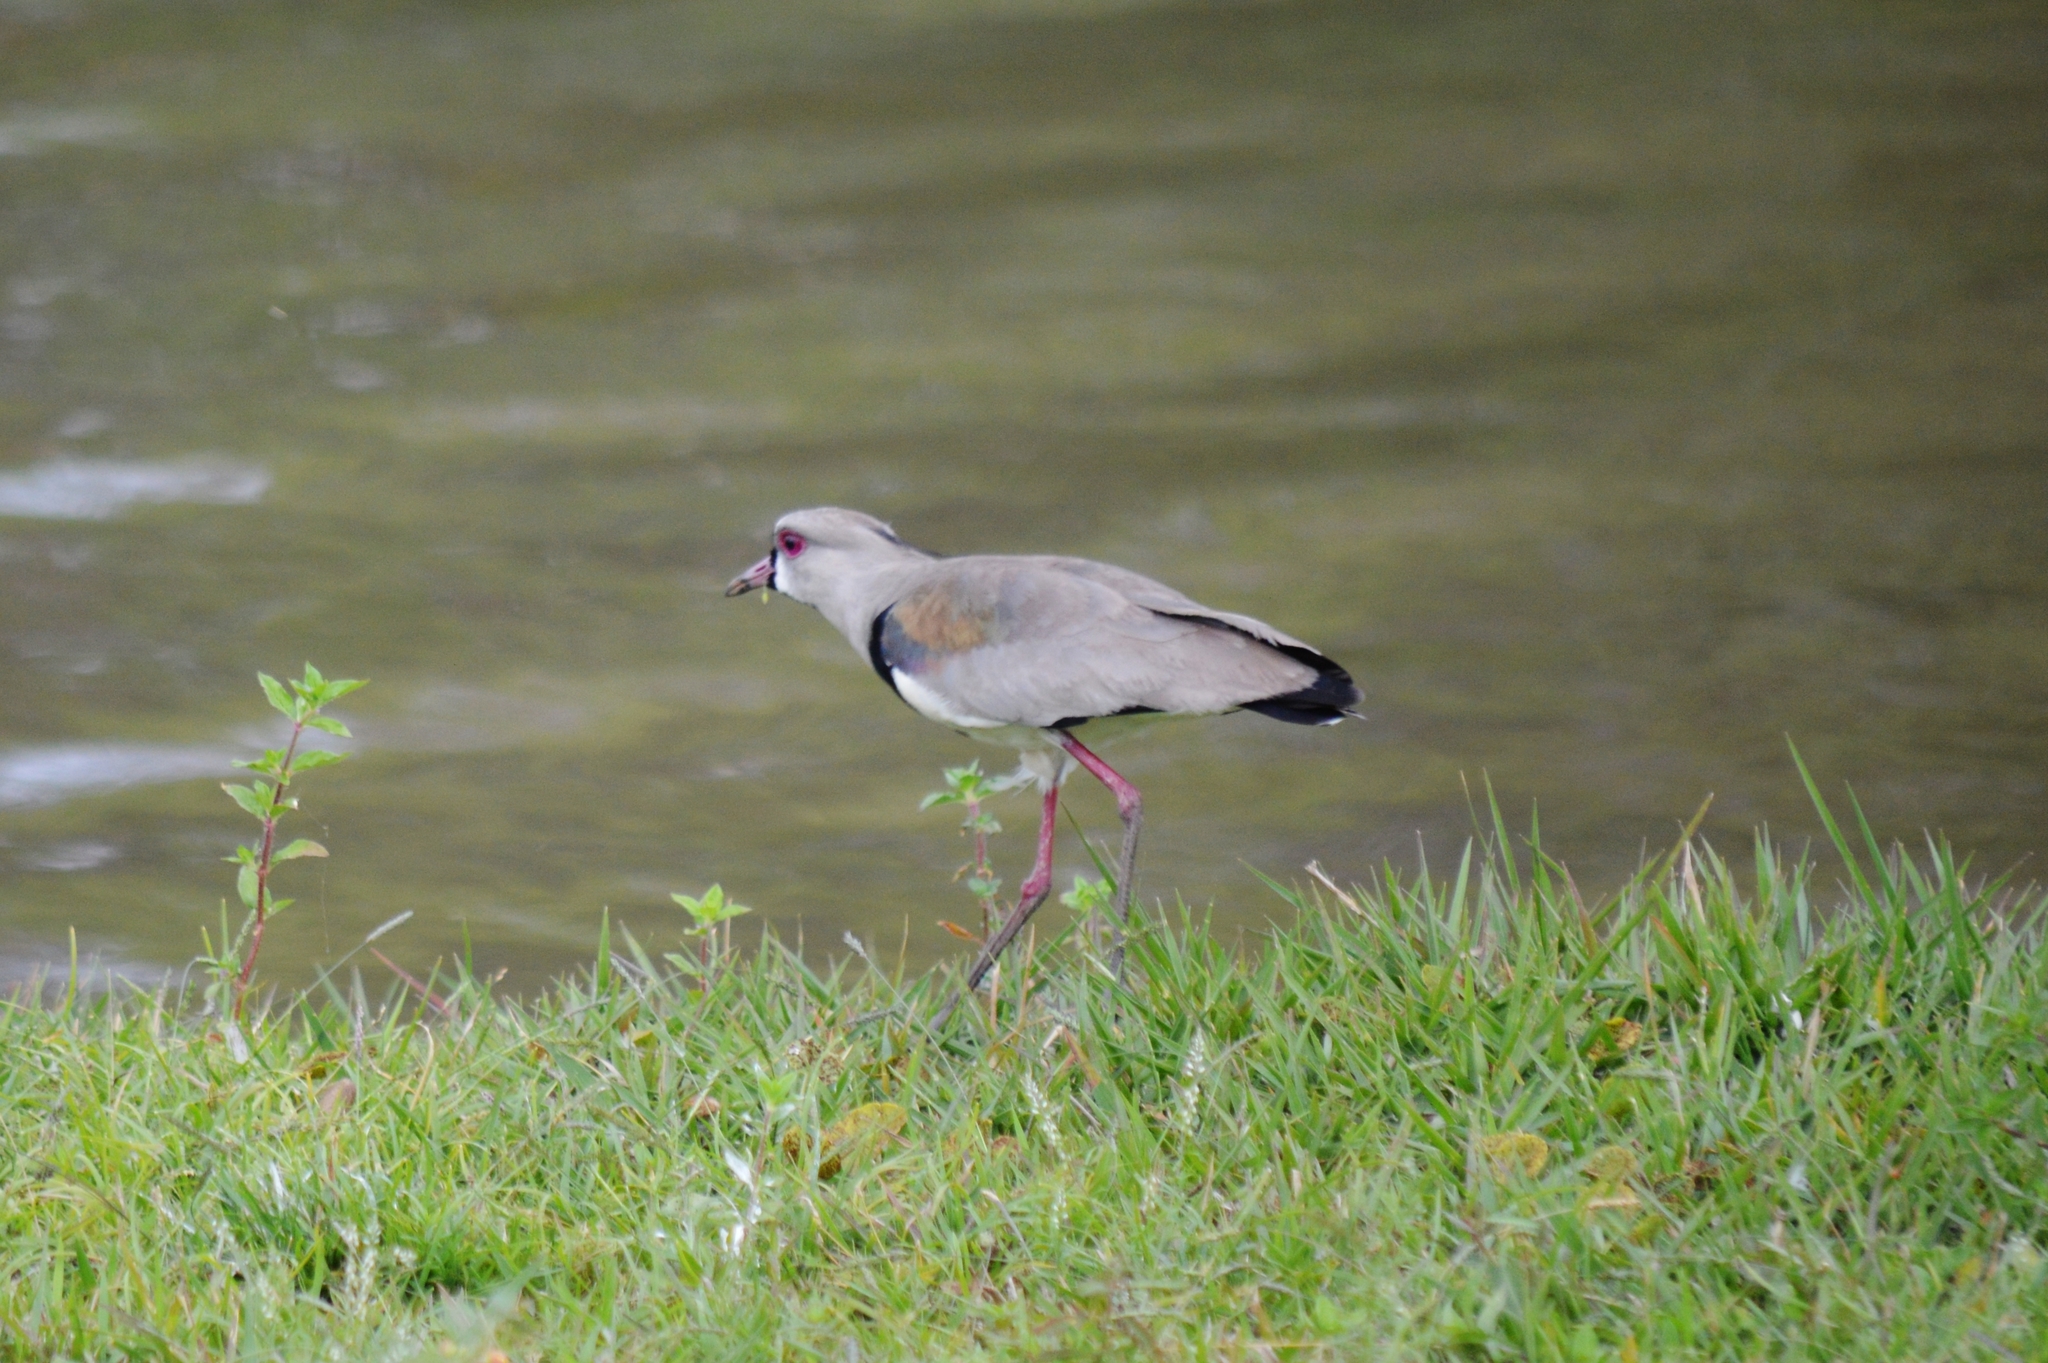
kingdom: Animalia
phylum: Chordata
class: Aves
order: Charadriiformes
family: Charadriidae
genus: Vanellus
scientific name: Vanellus chilensis
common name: Southern lapwing
